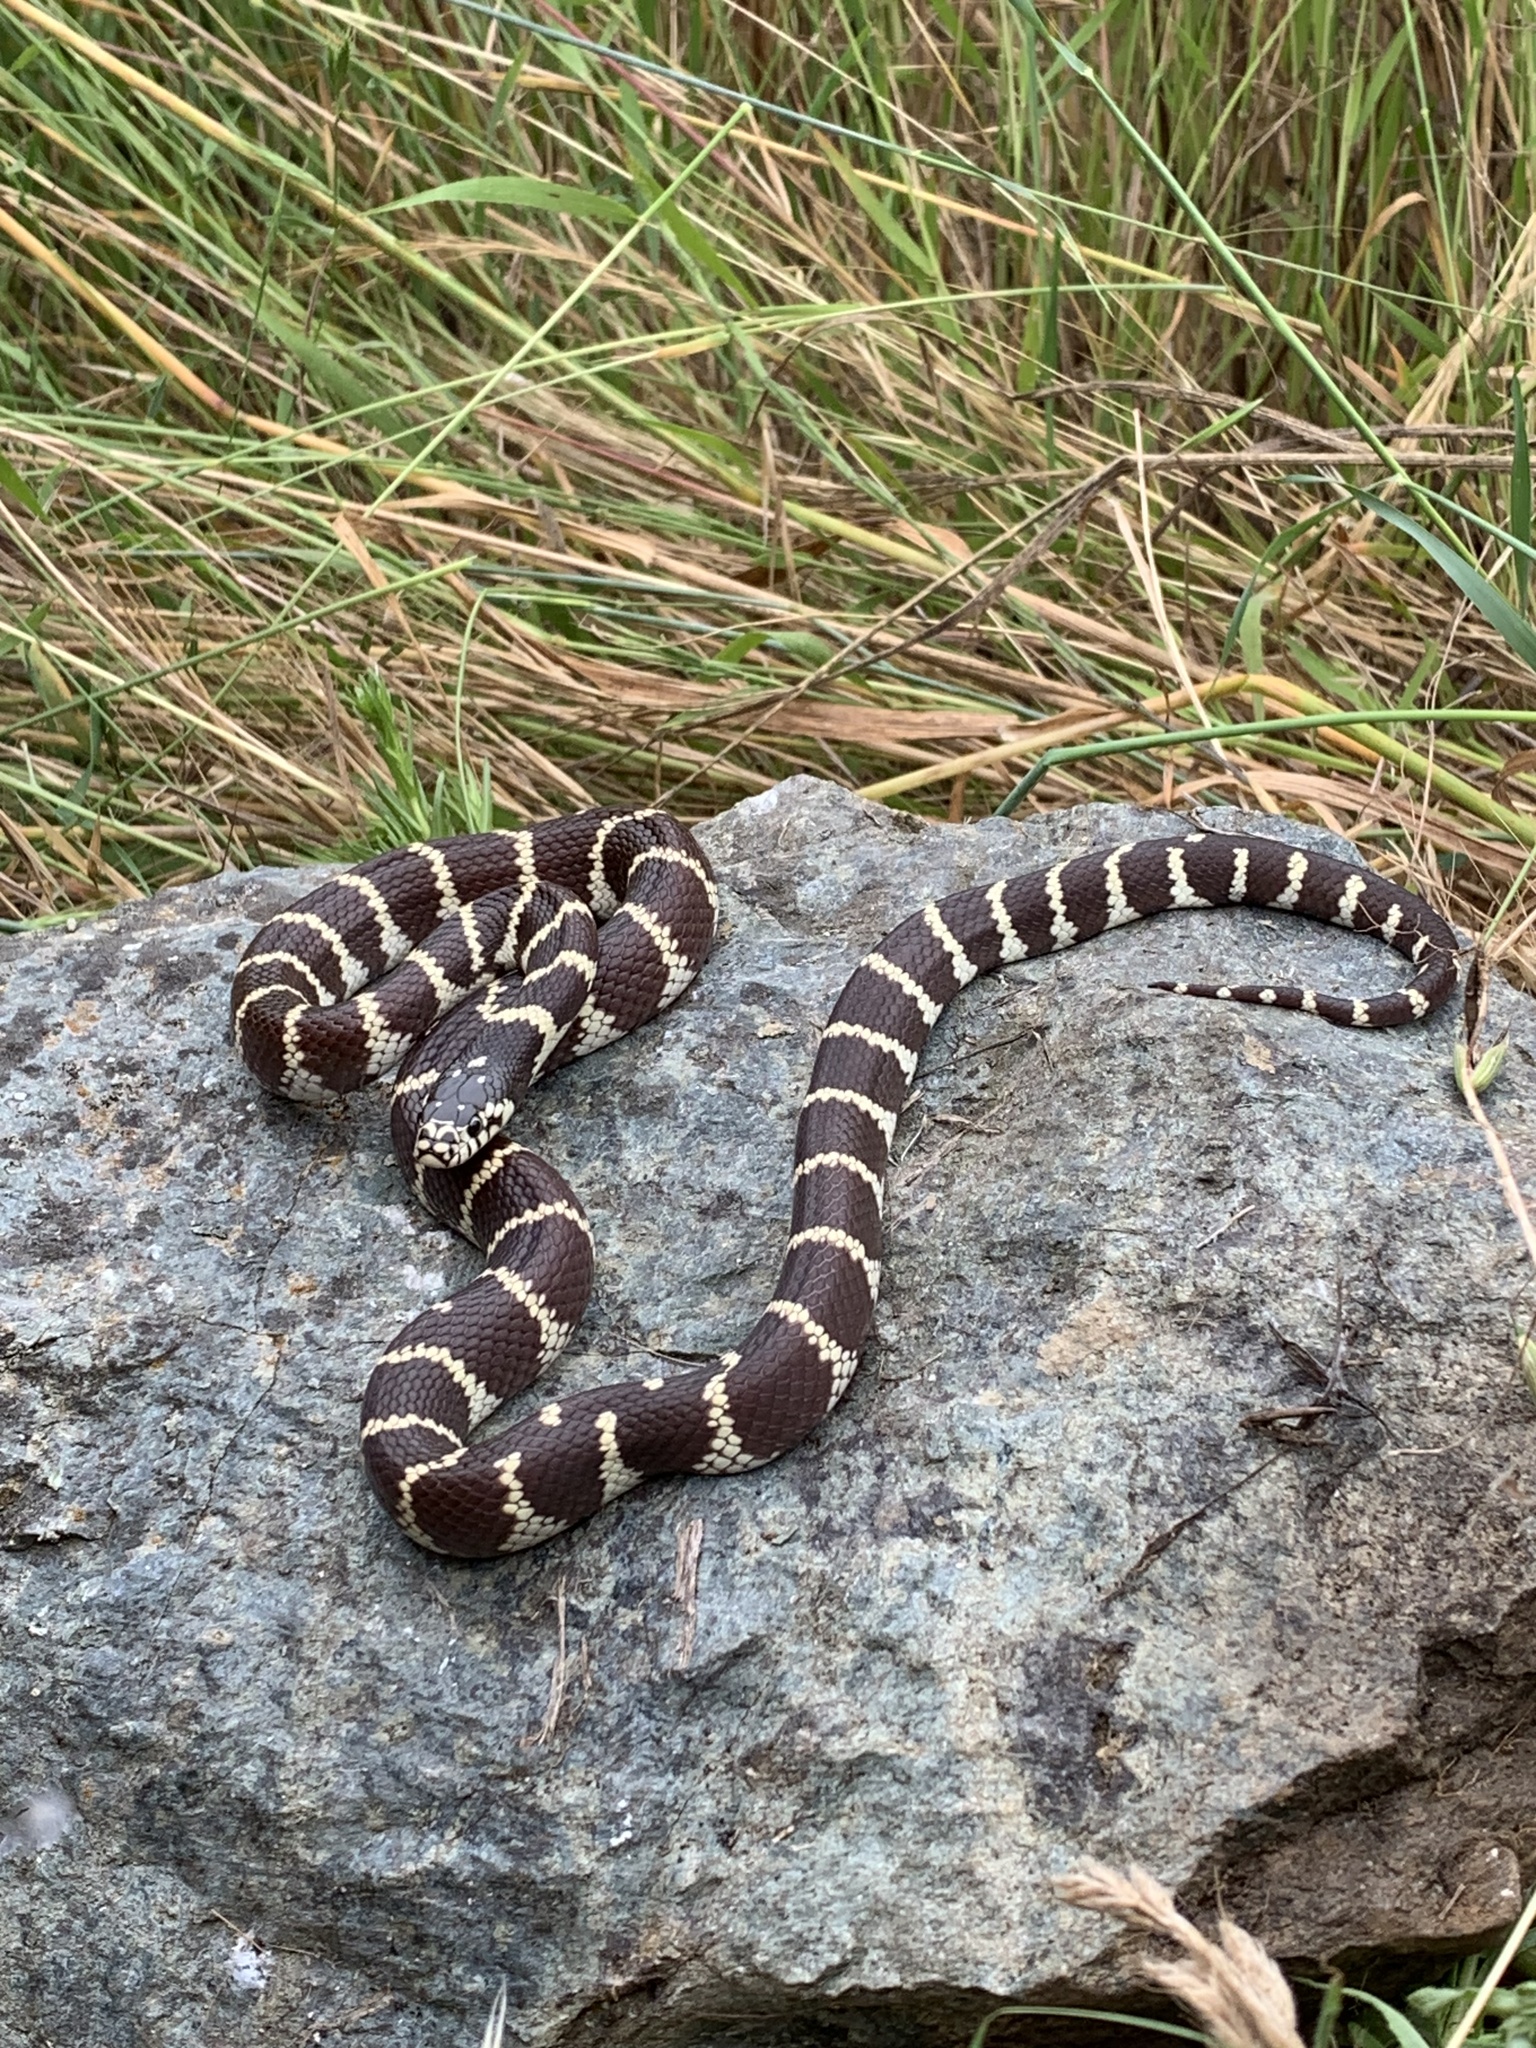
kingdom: Animalia
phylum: Chordata
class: Squamata
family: Colubridae
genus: Lampropeltis
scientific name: Lampropeltis californiae
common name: California kingsnake
